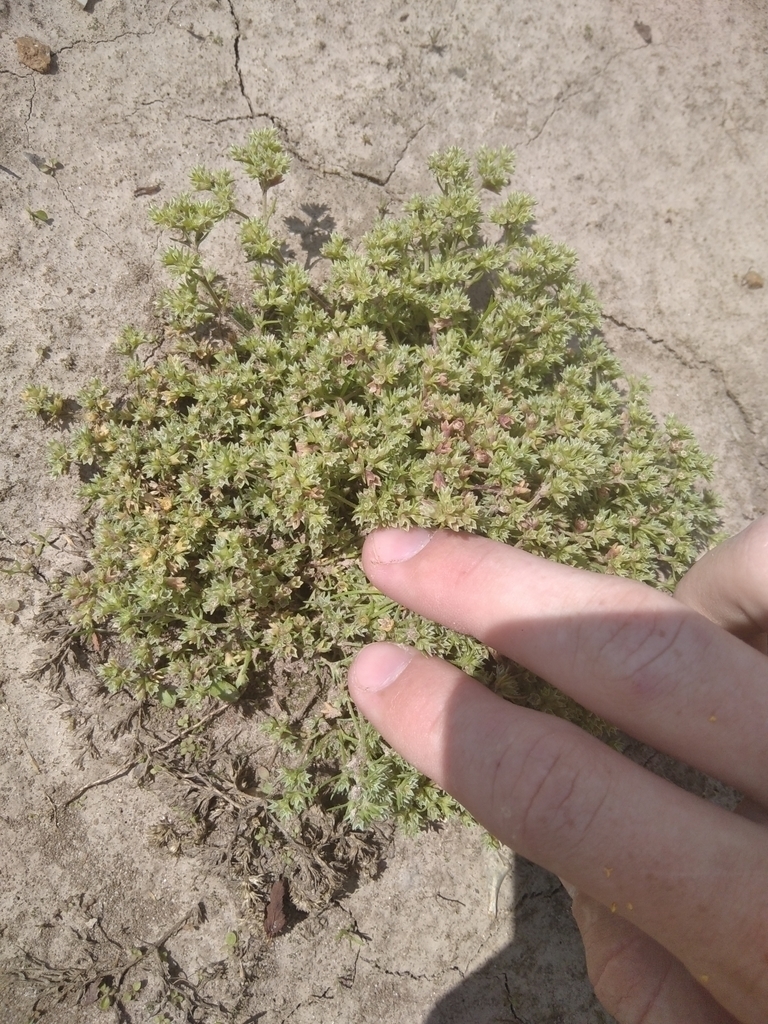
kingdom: Plantae
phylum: Tracheophyta
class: Magnoliopsida
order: Caryophyllales
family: Caryophyllaceae
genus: Scleranthus
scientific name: Scleranthus annuus
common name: Annual knawel
